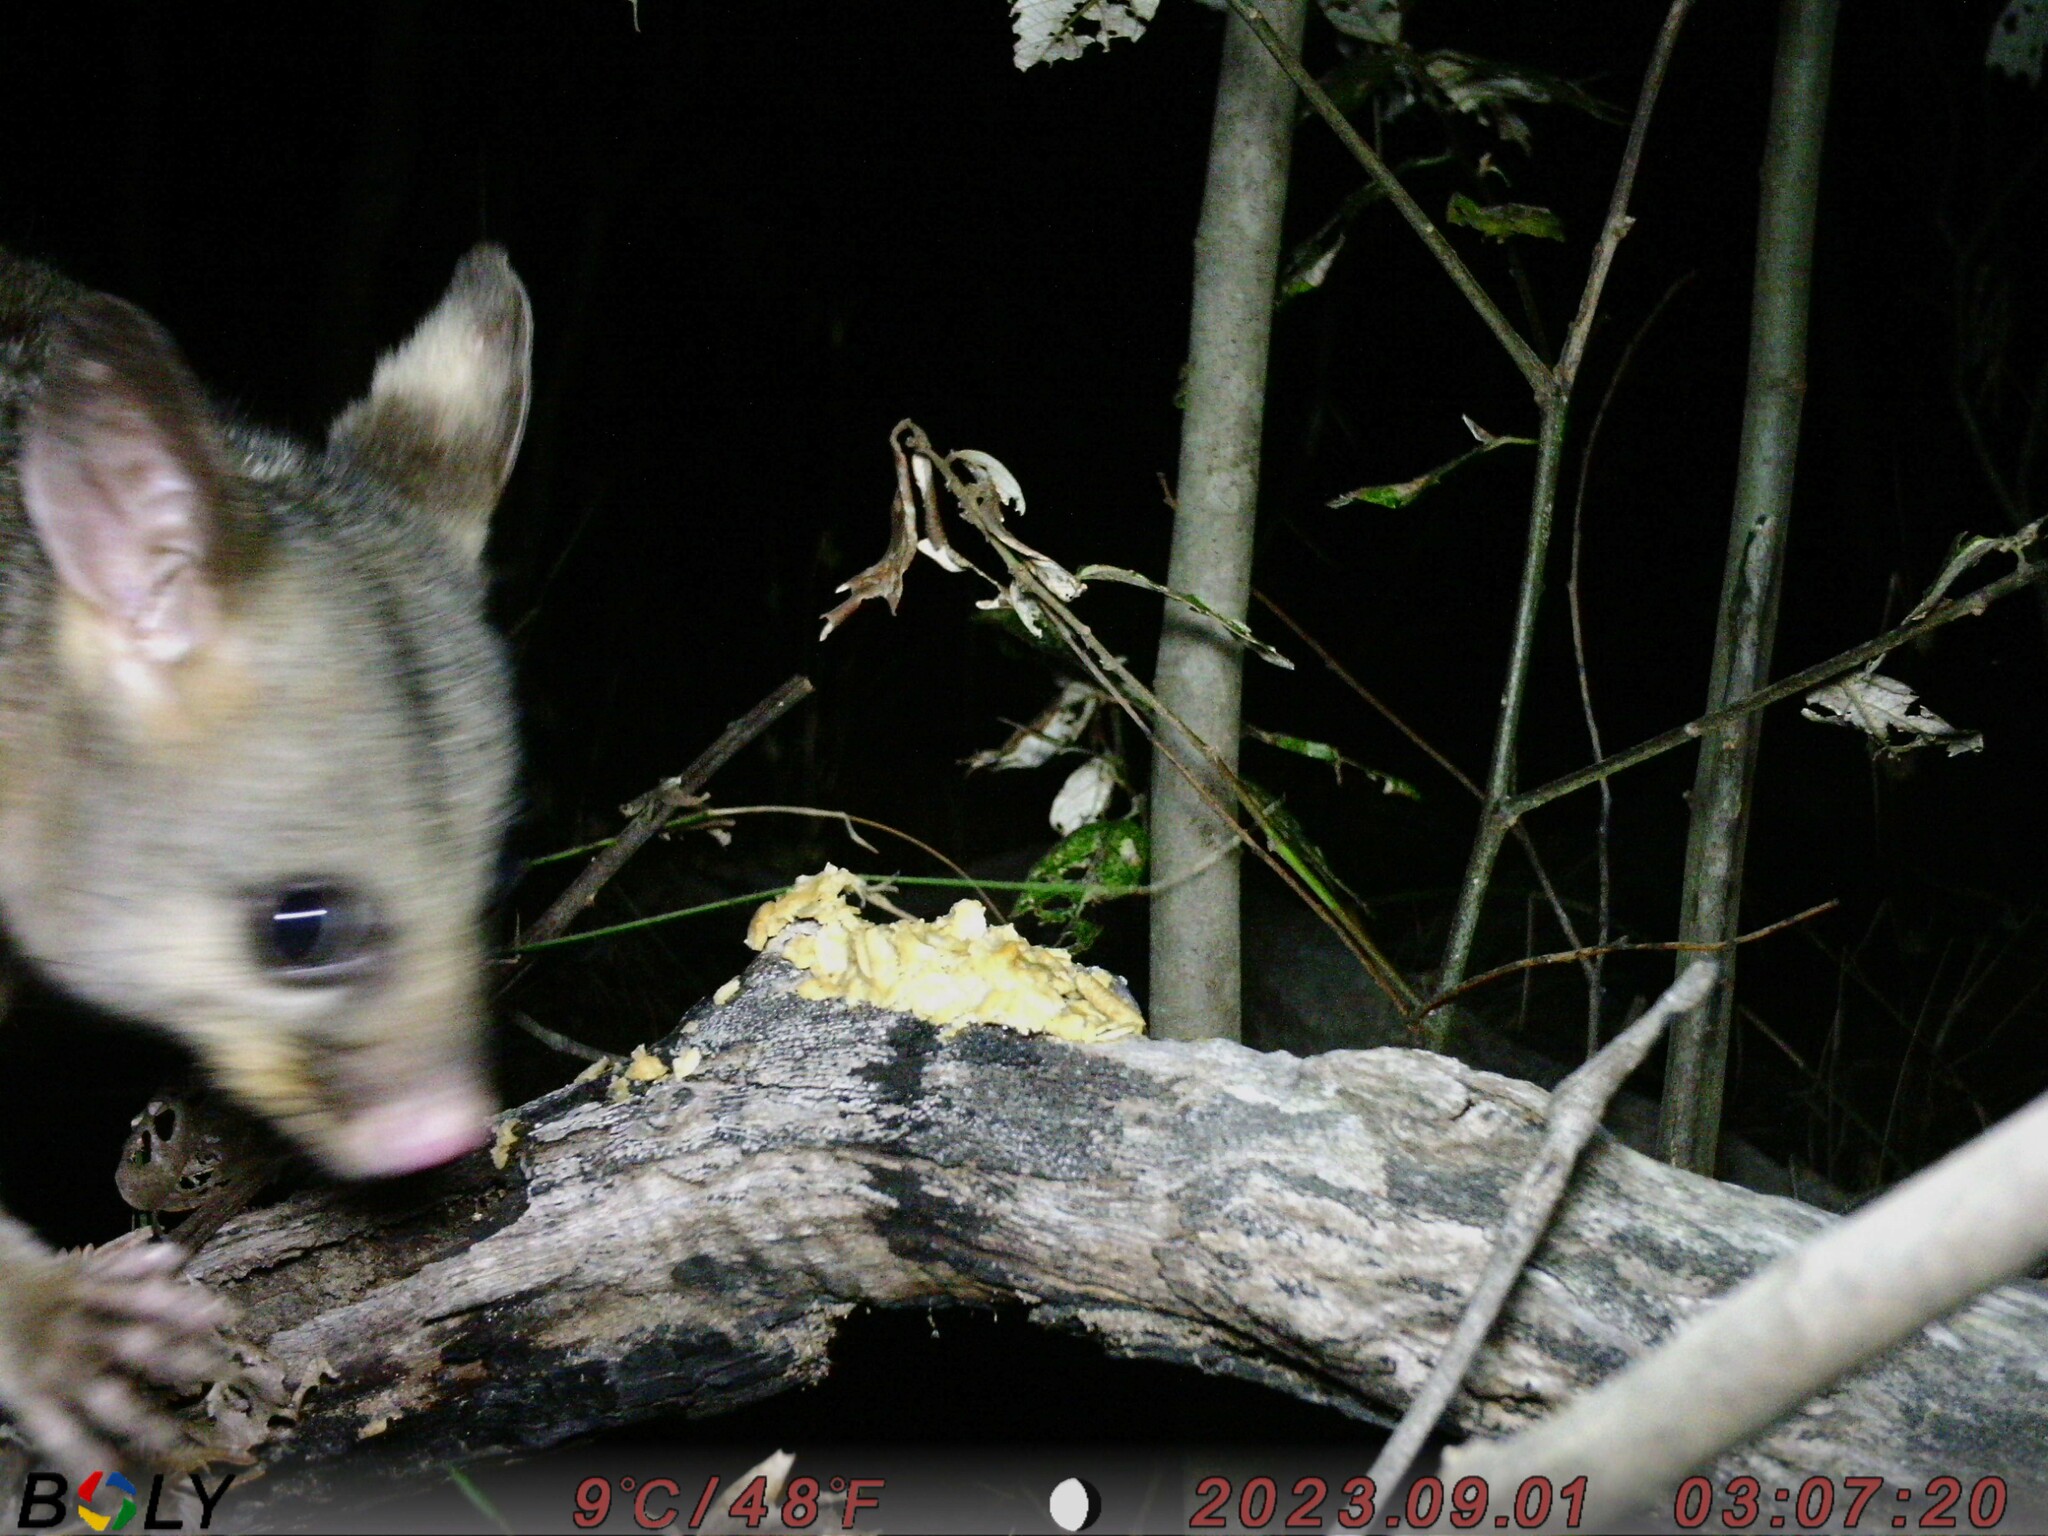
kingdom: Animalia
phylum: Chordata
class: Mammalia
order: Diprotodontia
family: Phalangeridae
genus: Trichosurus
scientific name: Trichosurus vulpecula
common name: Common brushtail
